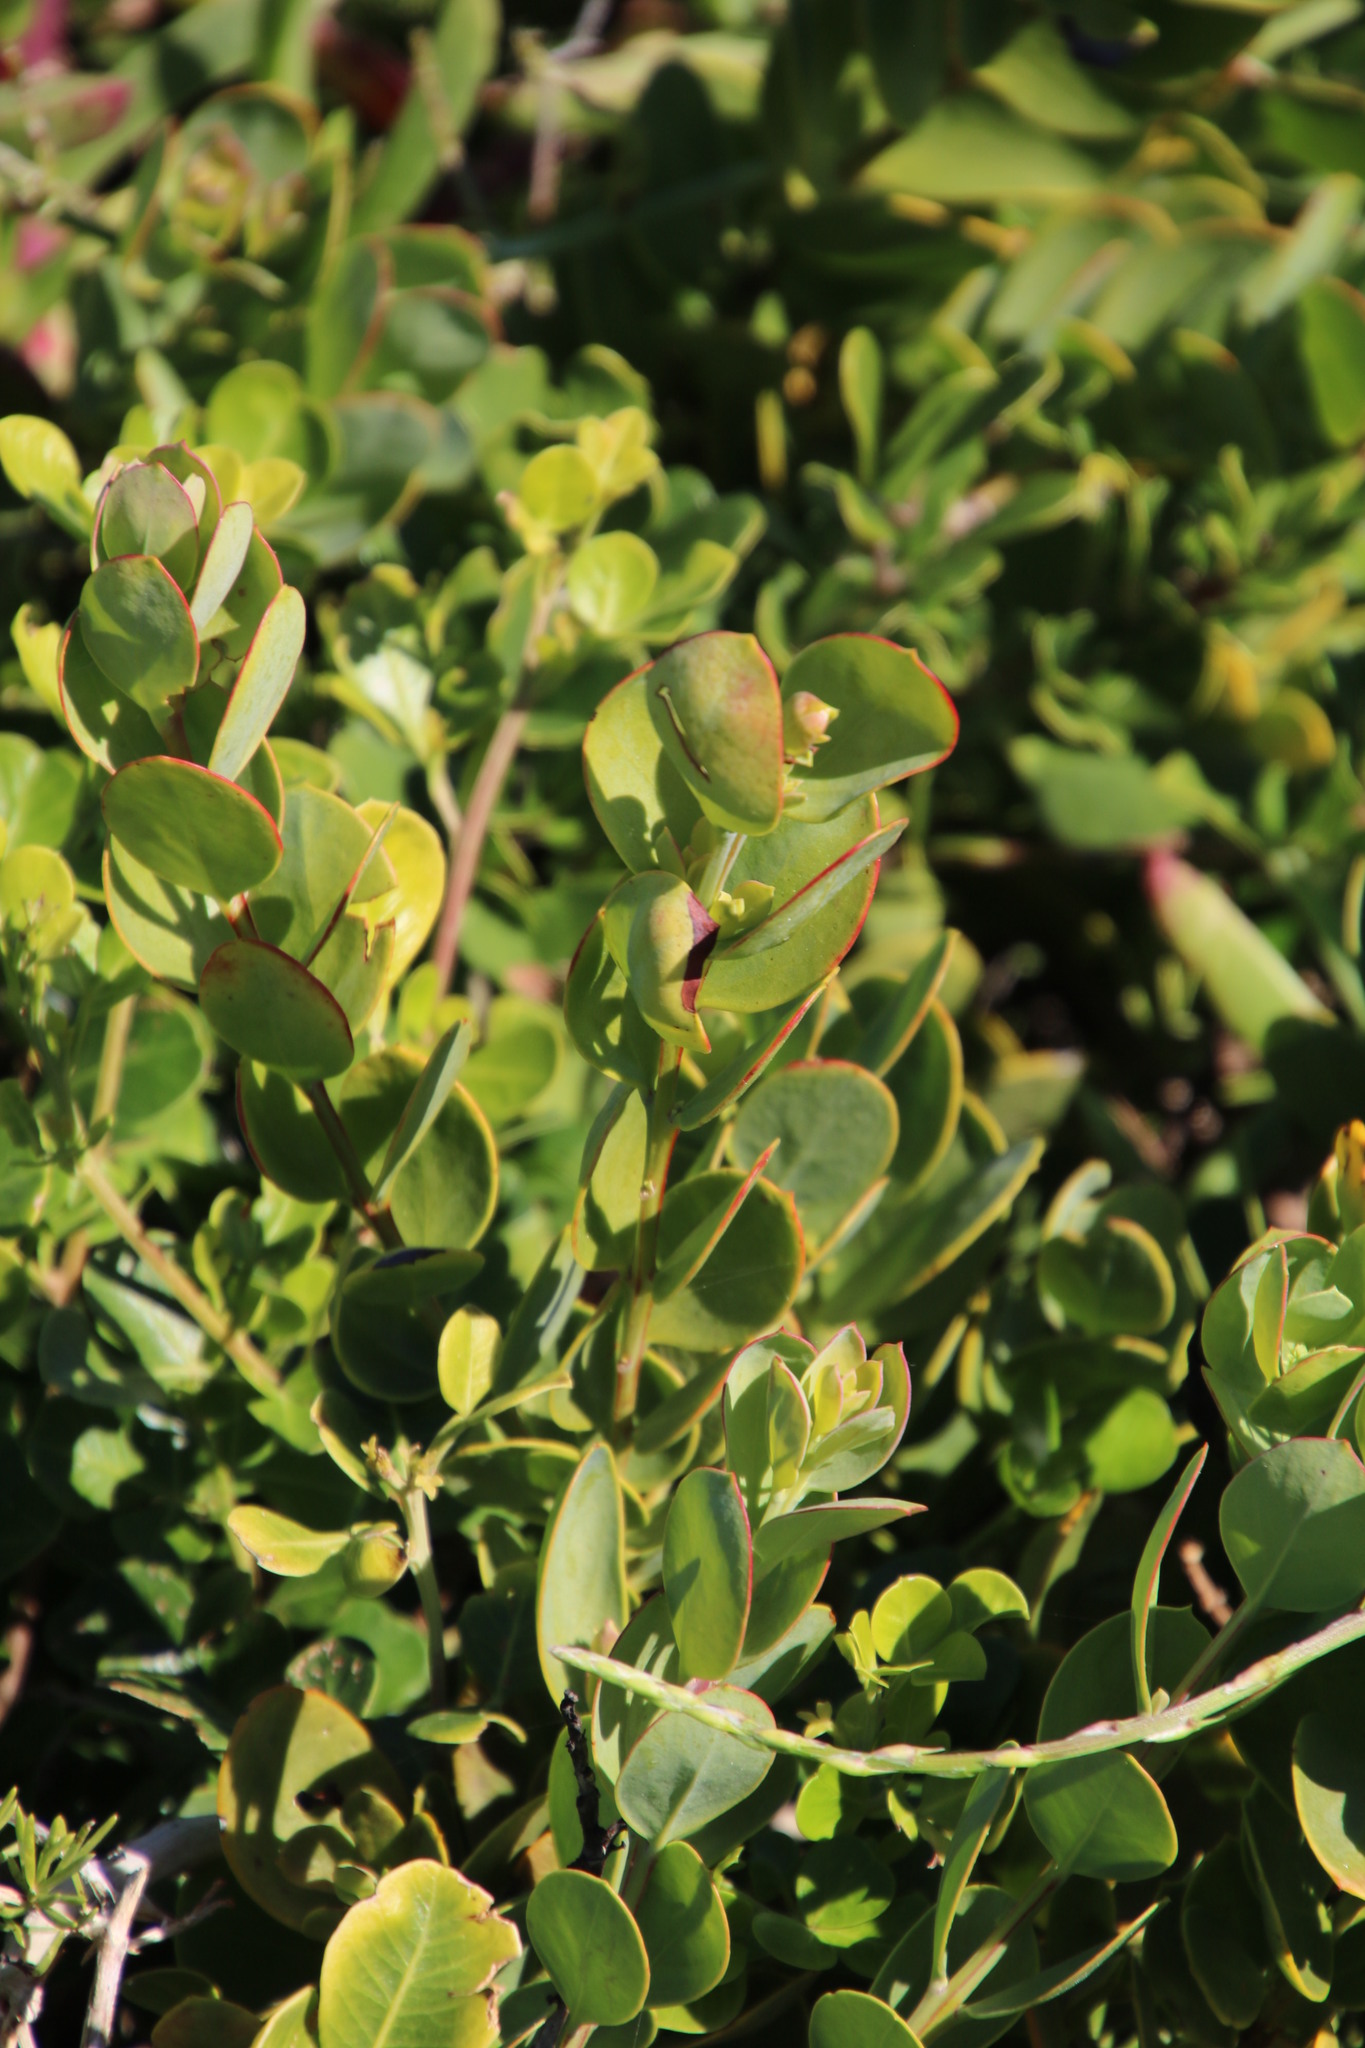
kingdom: Plantae
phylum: Tracheophyta
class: Magnoliopsida
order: Santalales
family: Santalaceae
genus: Osyris
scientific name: Osyris compressa
